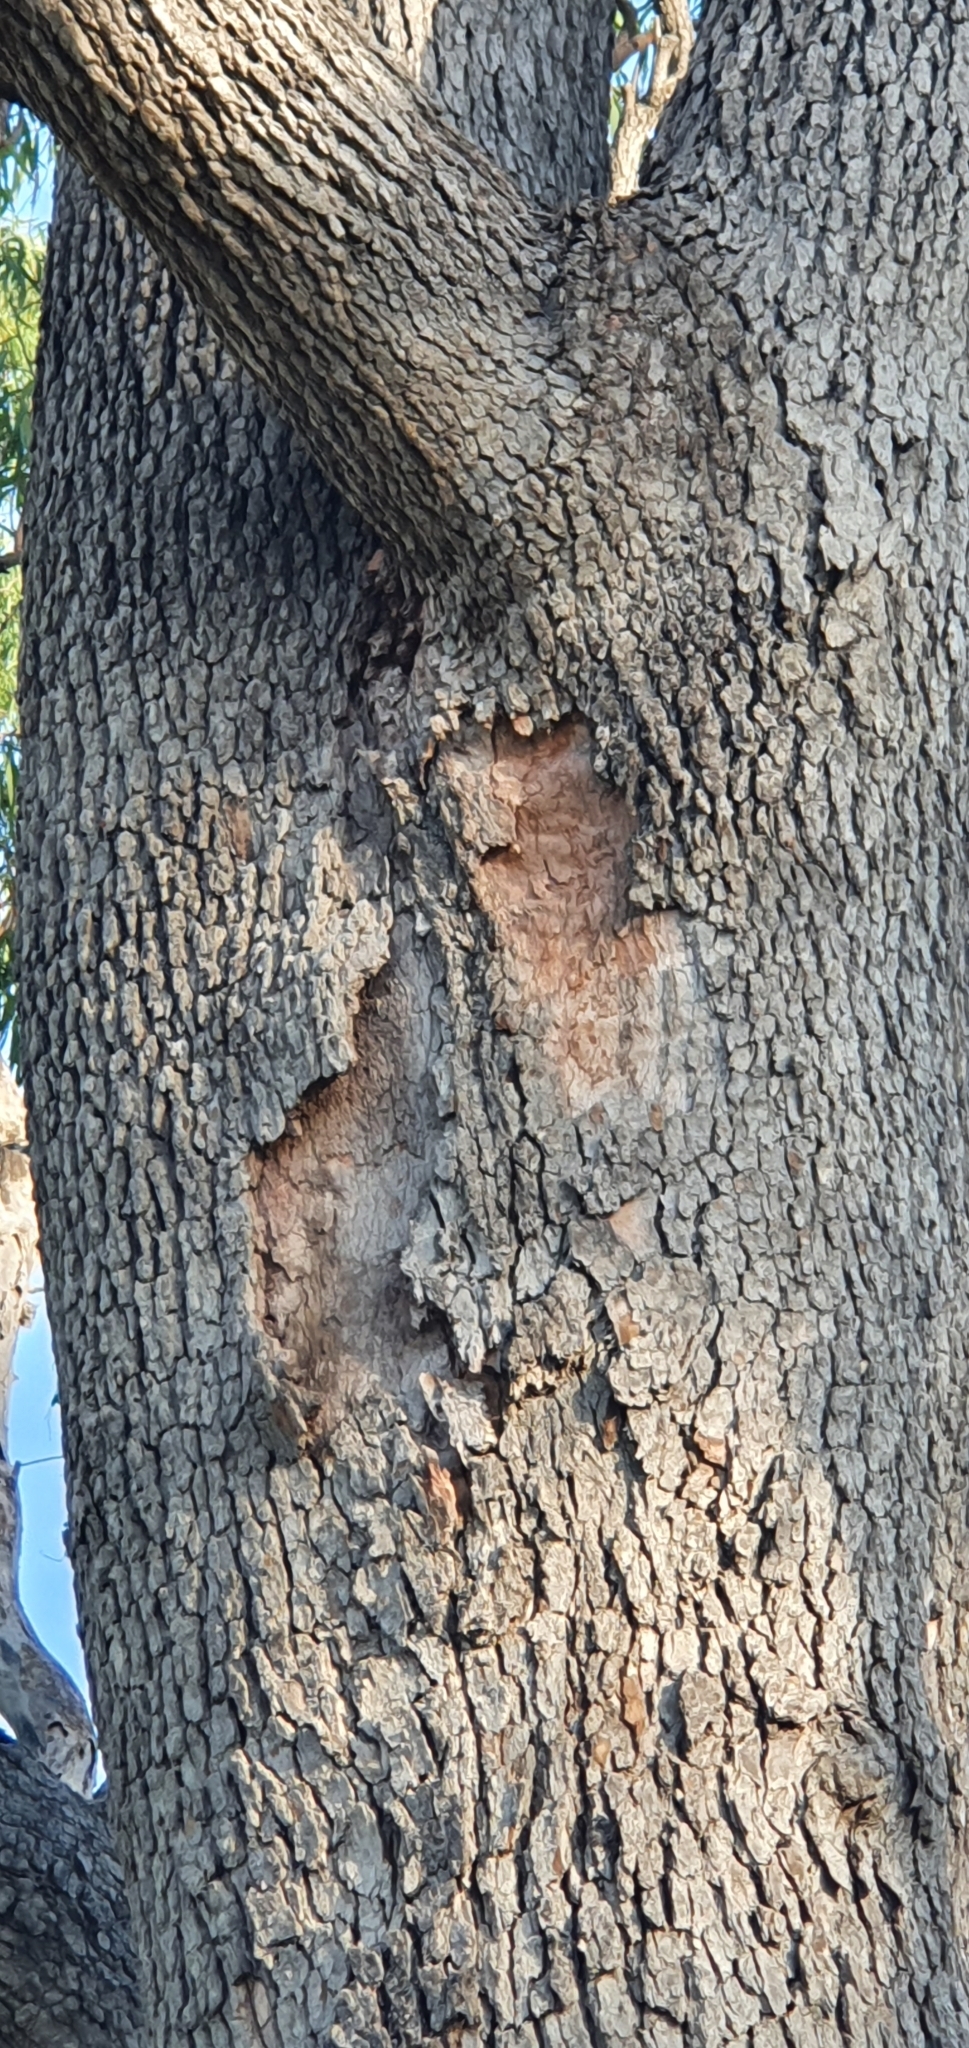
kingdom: Plantae
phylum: Tracheophyta
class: Magnoliopsida
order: Myrtales
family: Myrtaceae
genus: Corymbia
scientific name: Corymbia clarksoniana
